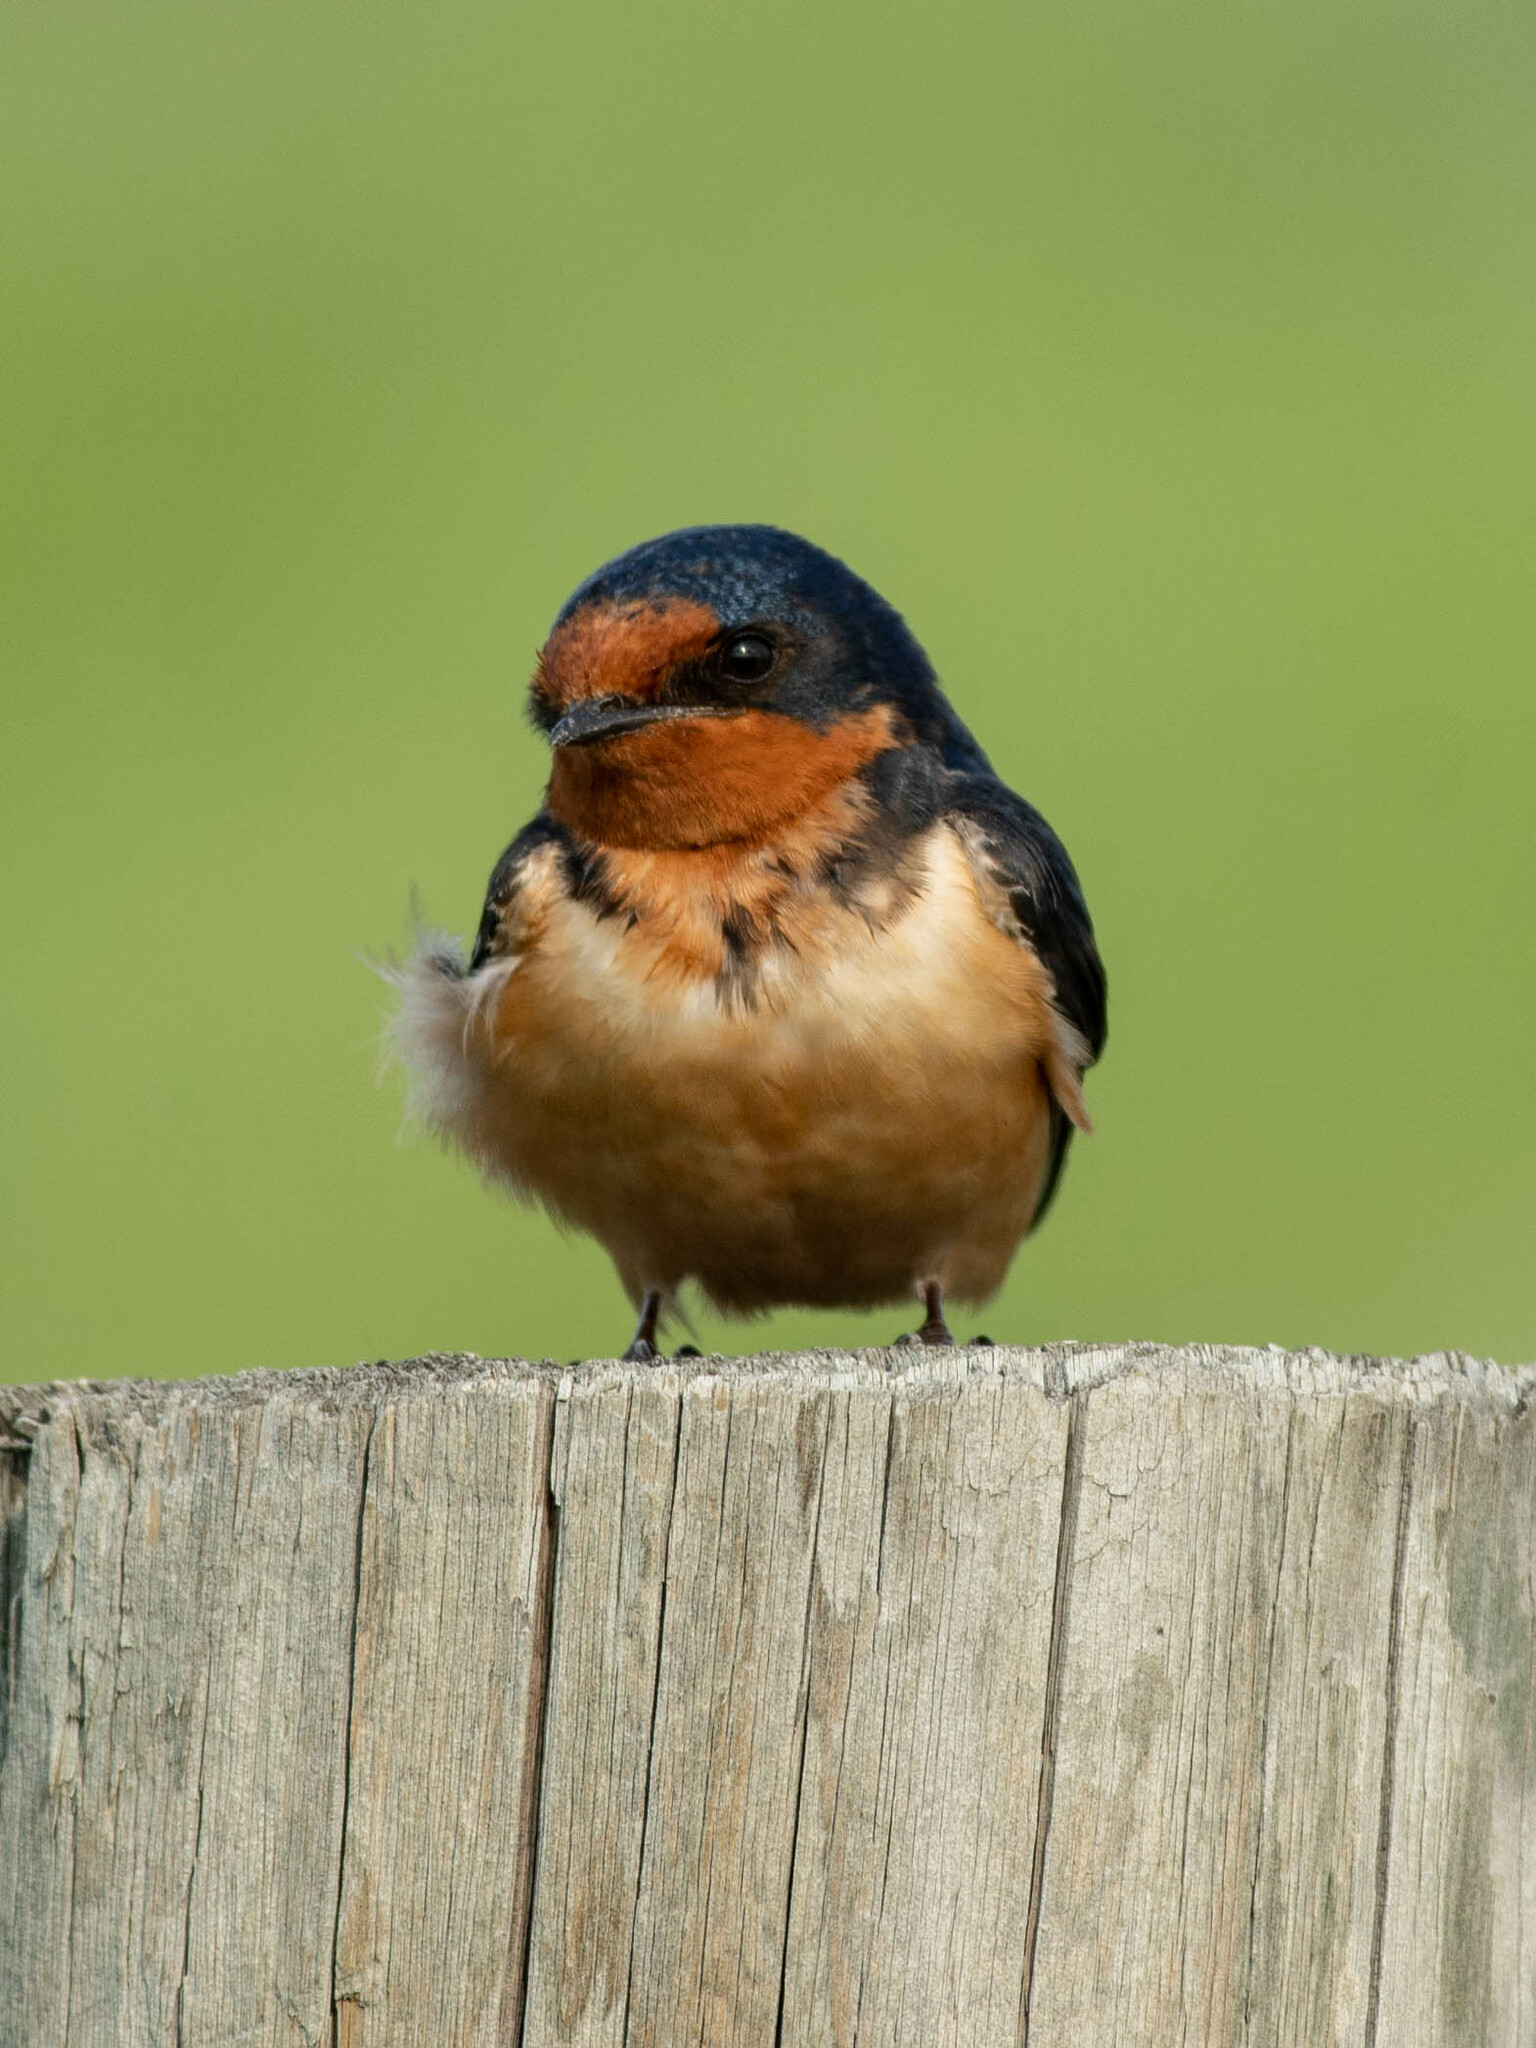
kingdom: Animalia
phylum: Chordata
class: Aves
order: Passeriformes
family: Hirundinidae
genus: Hirundo
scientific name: Hirundo rustica
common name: Barn swallow
